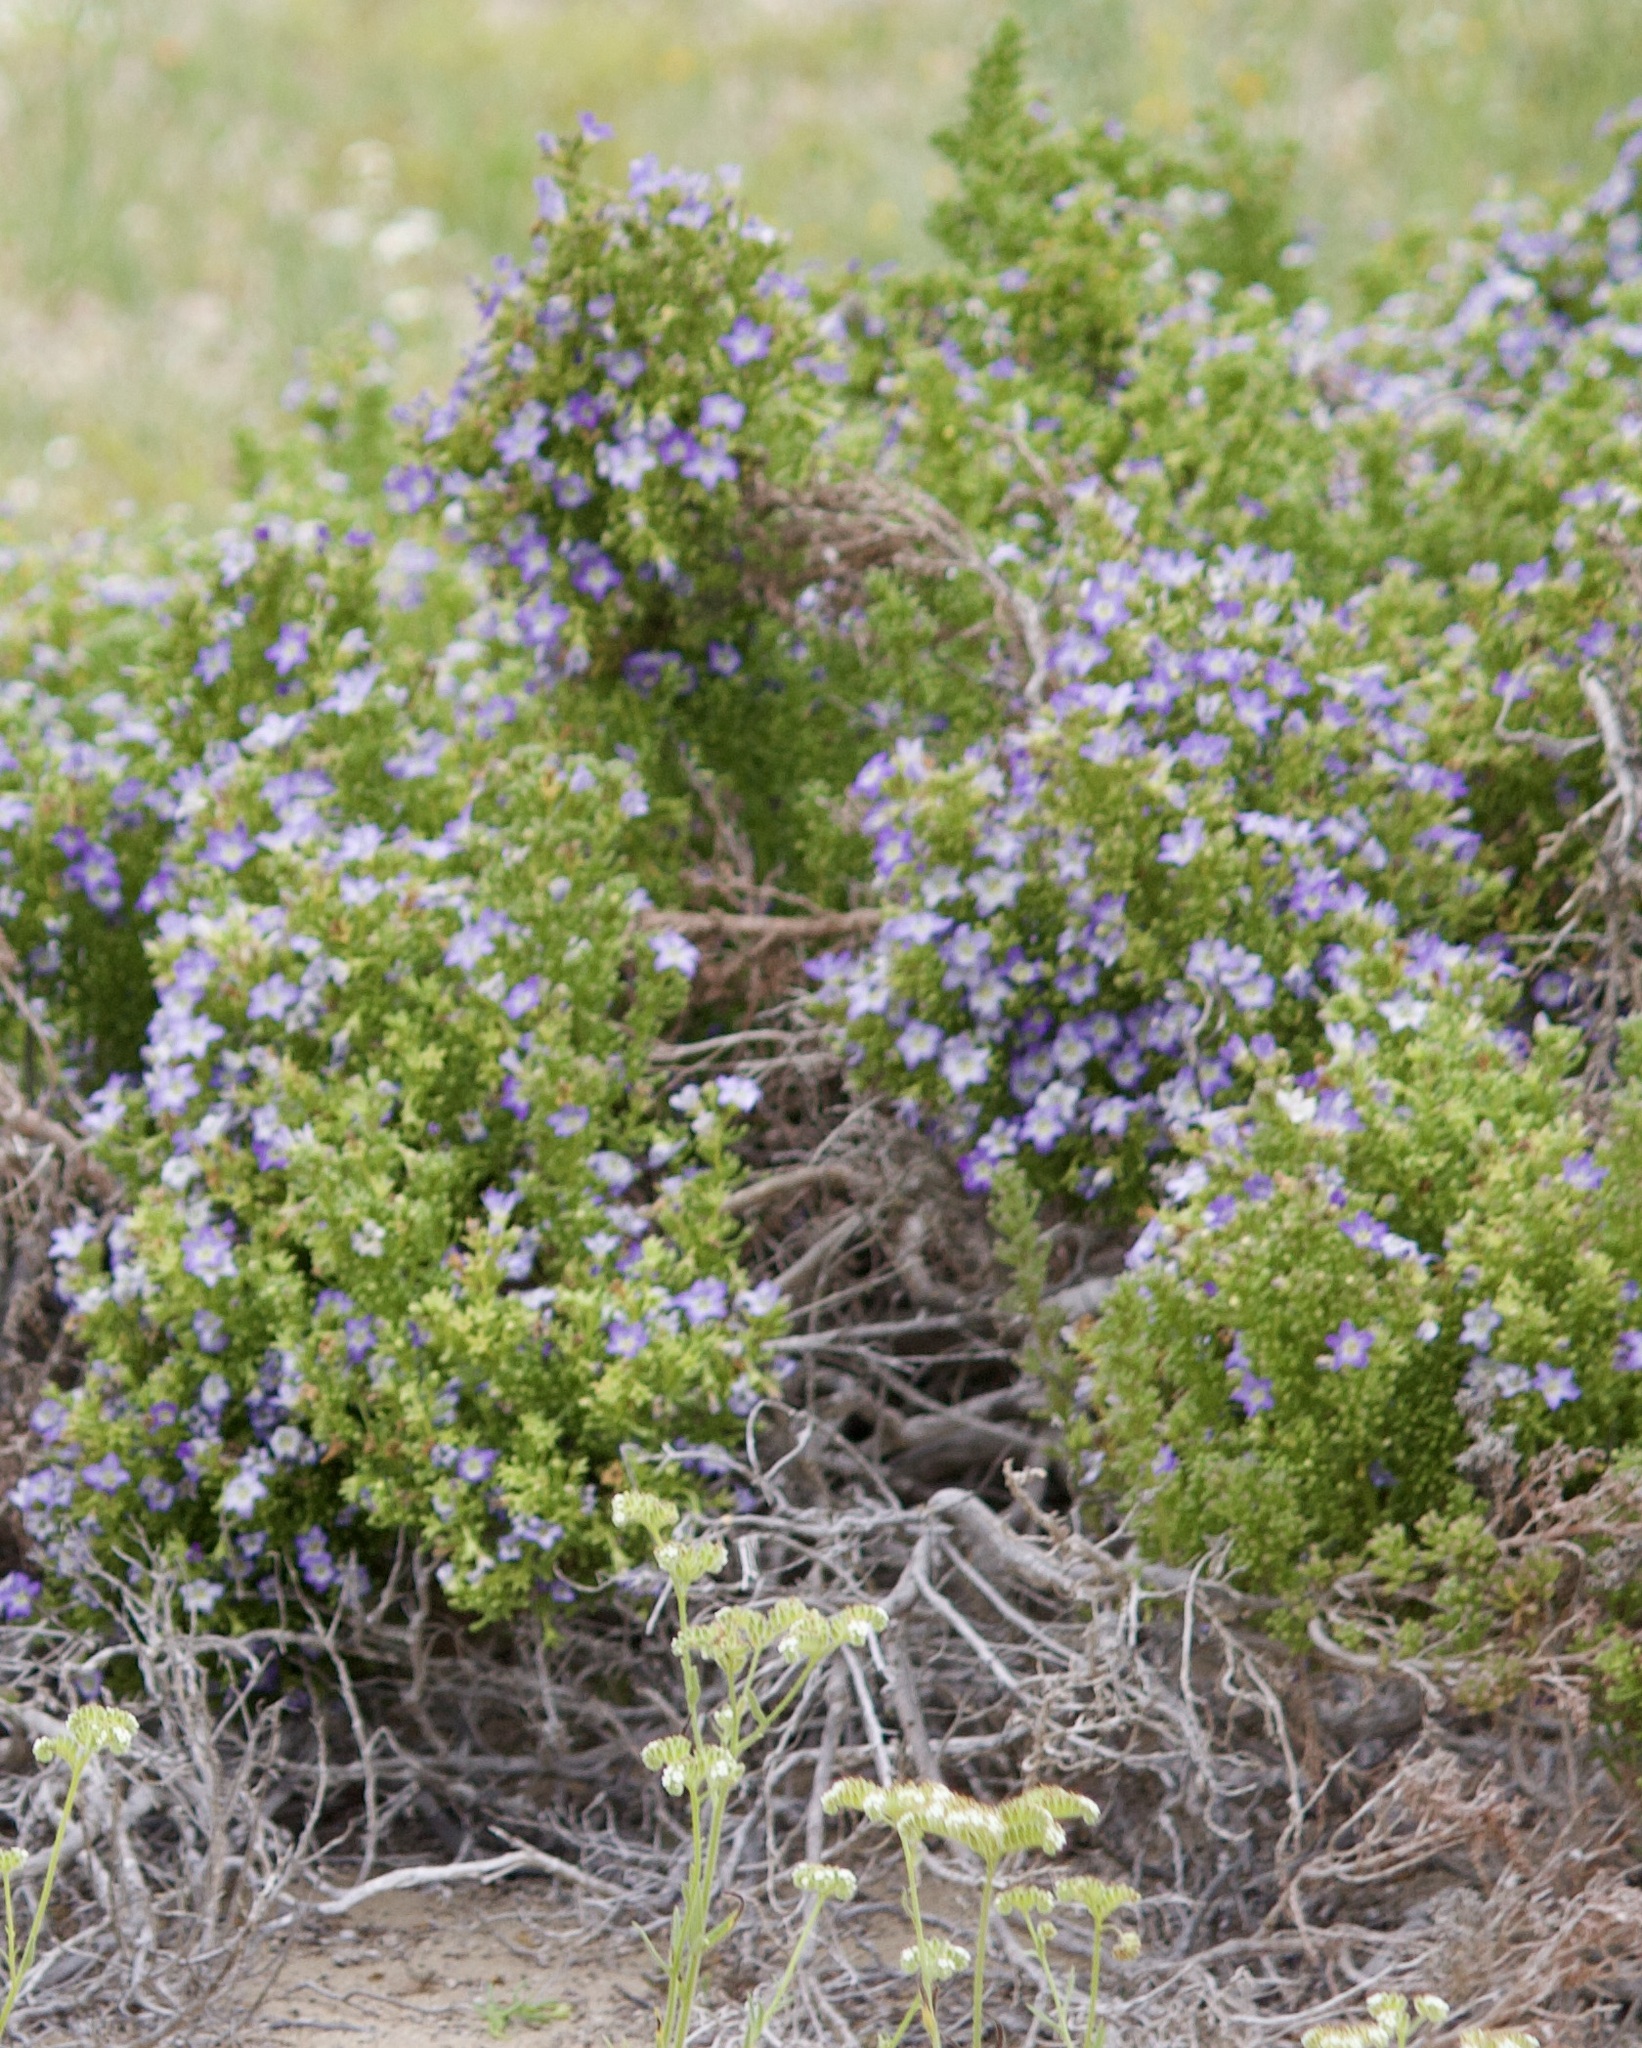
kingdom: Plantae
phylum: Tracheophyta
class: Magnoliopsida
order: Solanales
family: Solanaceae
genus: Nolana
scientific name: Nolana divaricata
